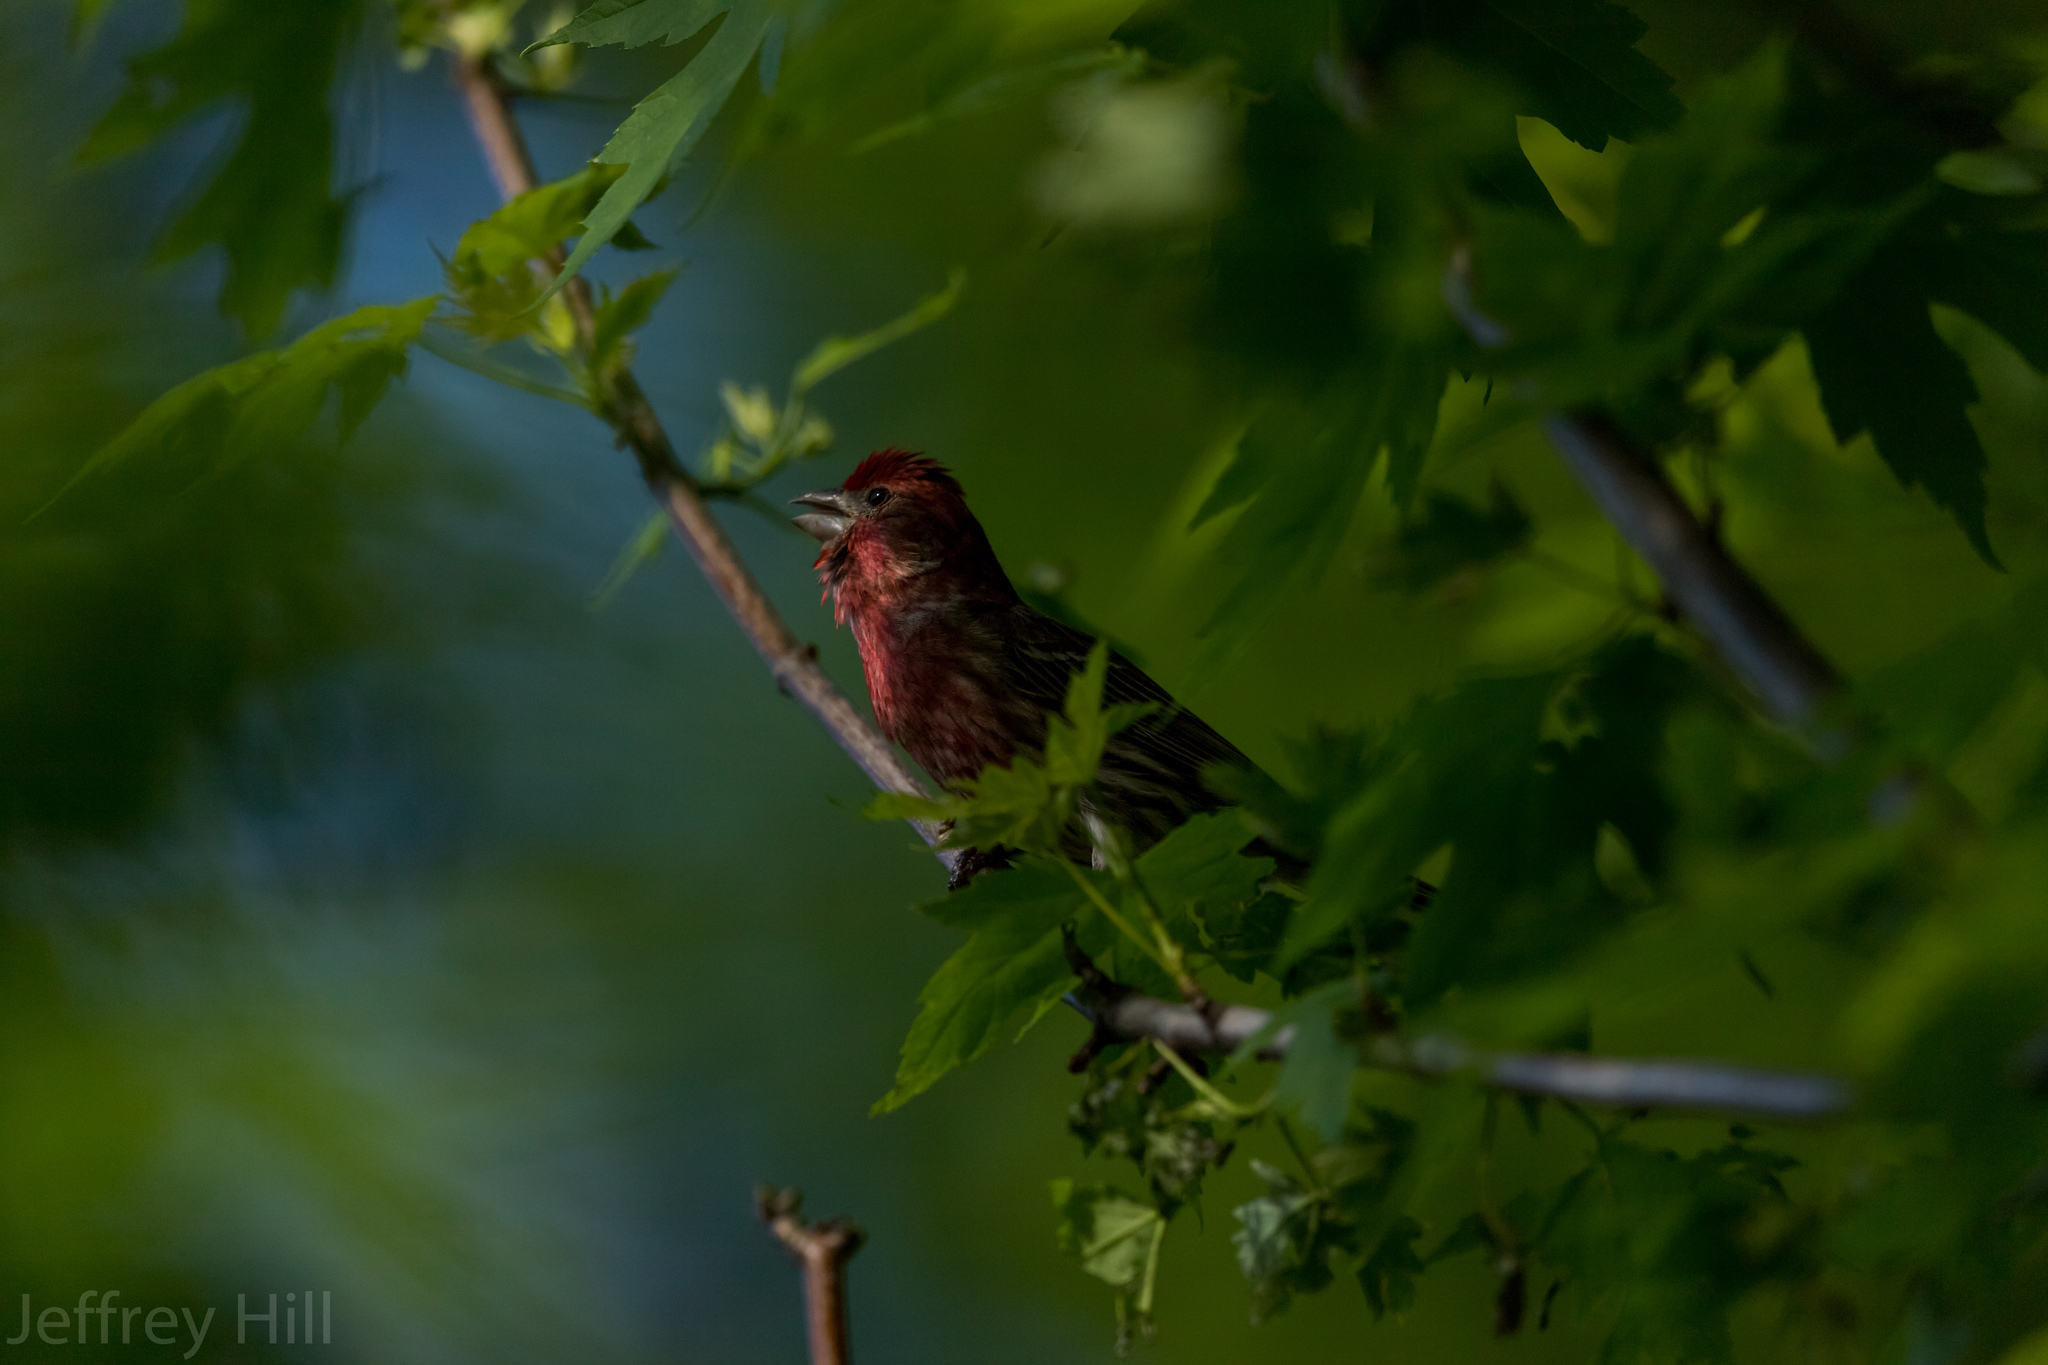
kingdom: Animalia
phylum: Chordata
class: Aves
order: Passeriformes
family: Fringillidae
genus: Haemorhous
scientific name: Haemorhous mexicanus
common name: House finch
